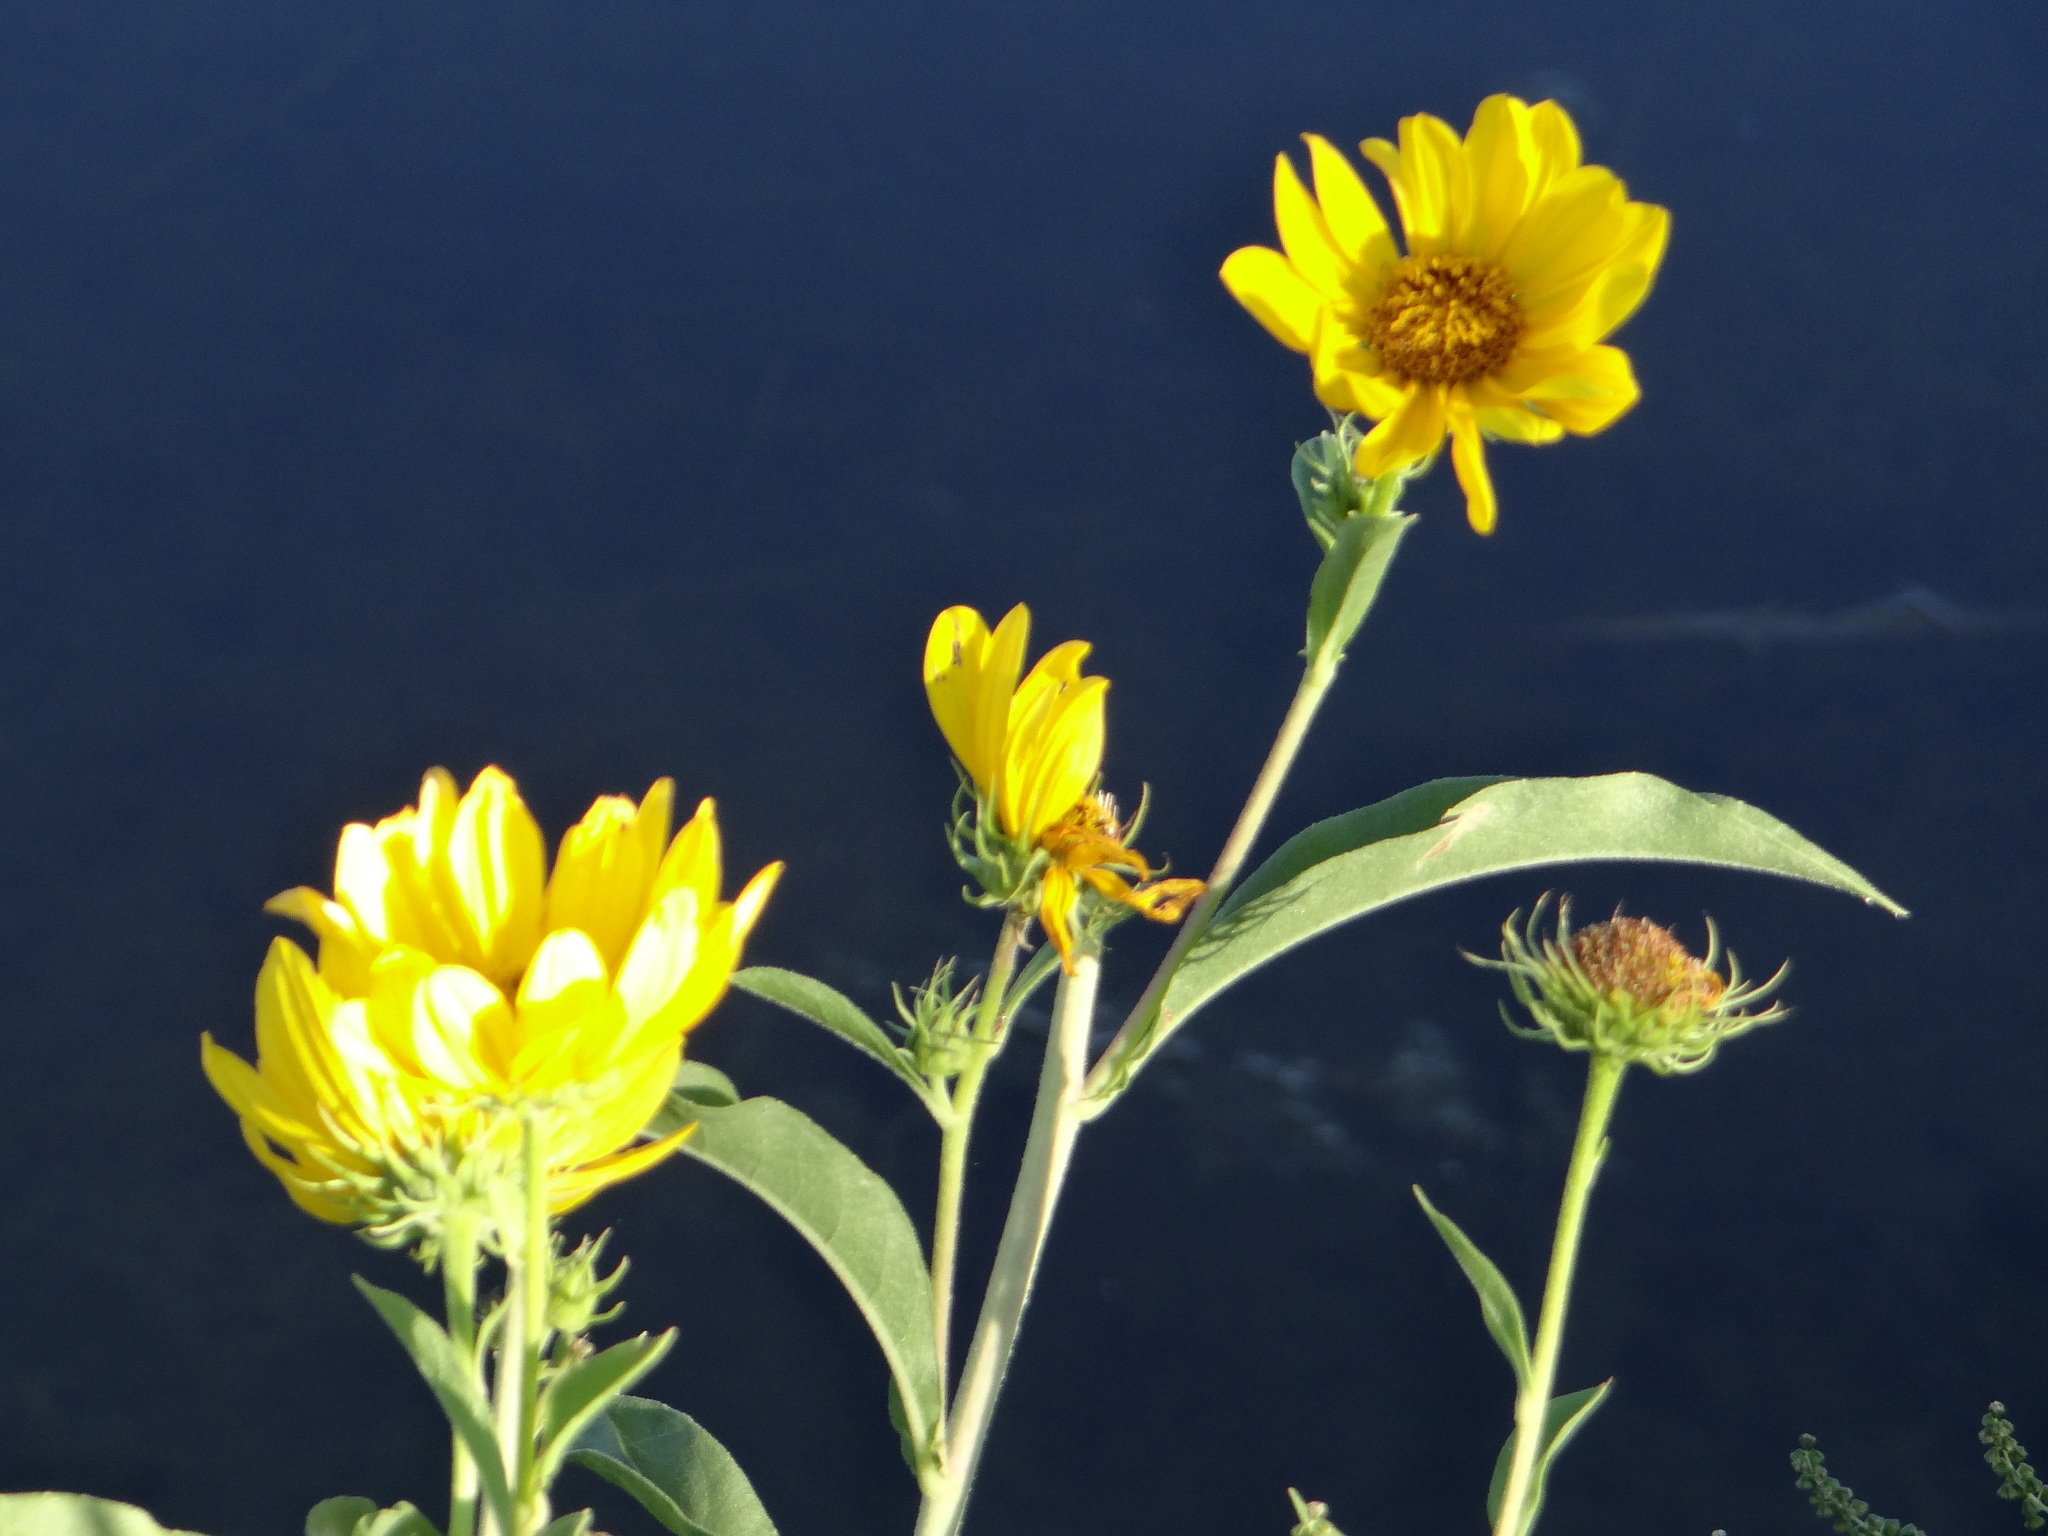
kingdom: Plantae
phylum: Tracheophyta
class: Magnoliopsida
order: Asterales
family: Asteraceae
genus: Helianthus
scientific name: Helianthus maximiliani
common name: Maximilian's sunflower
